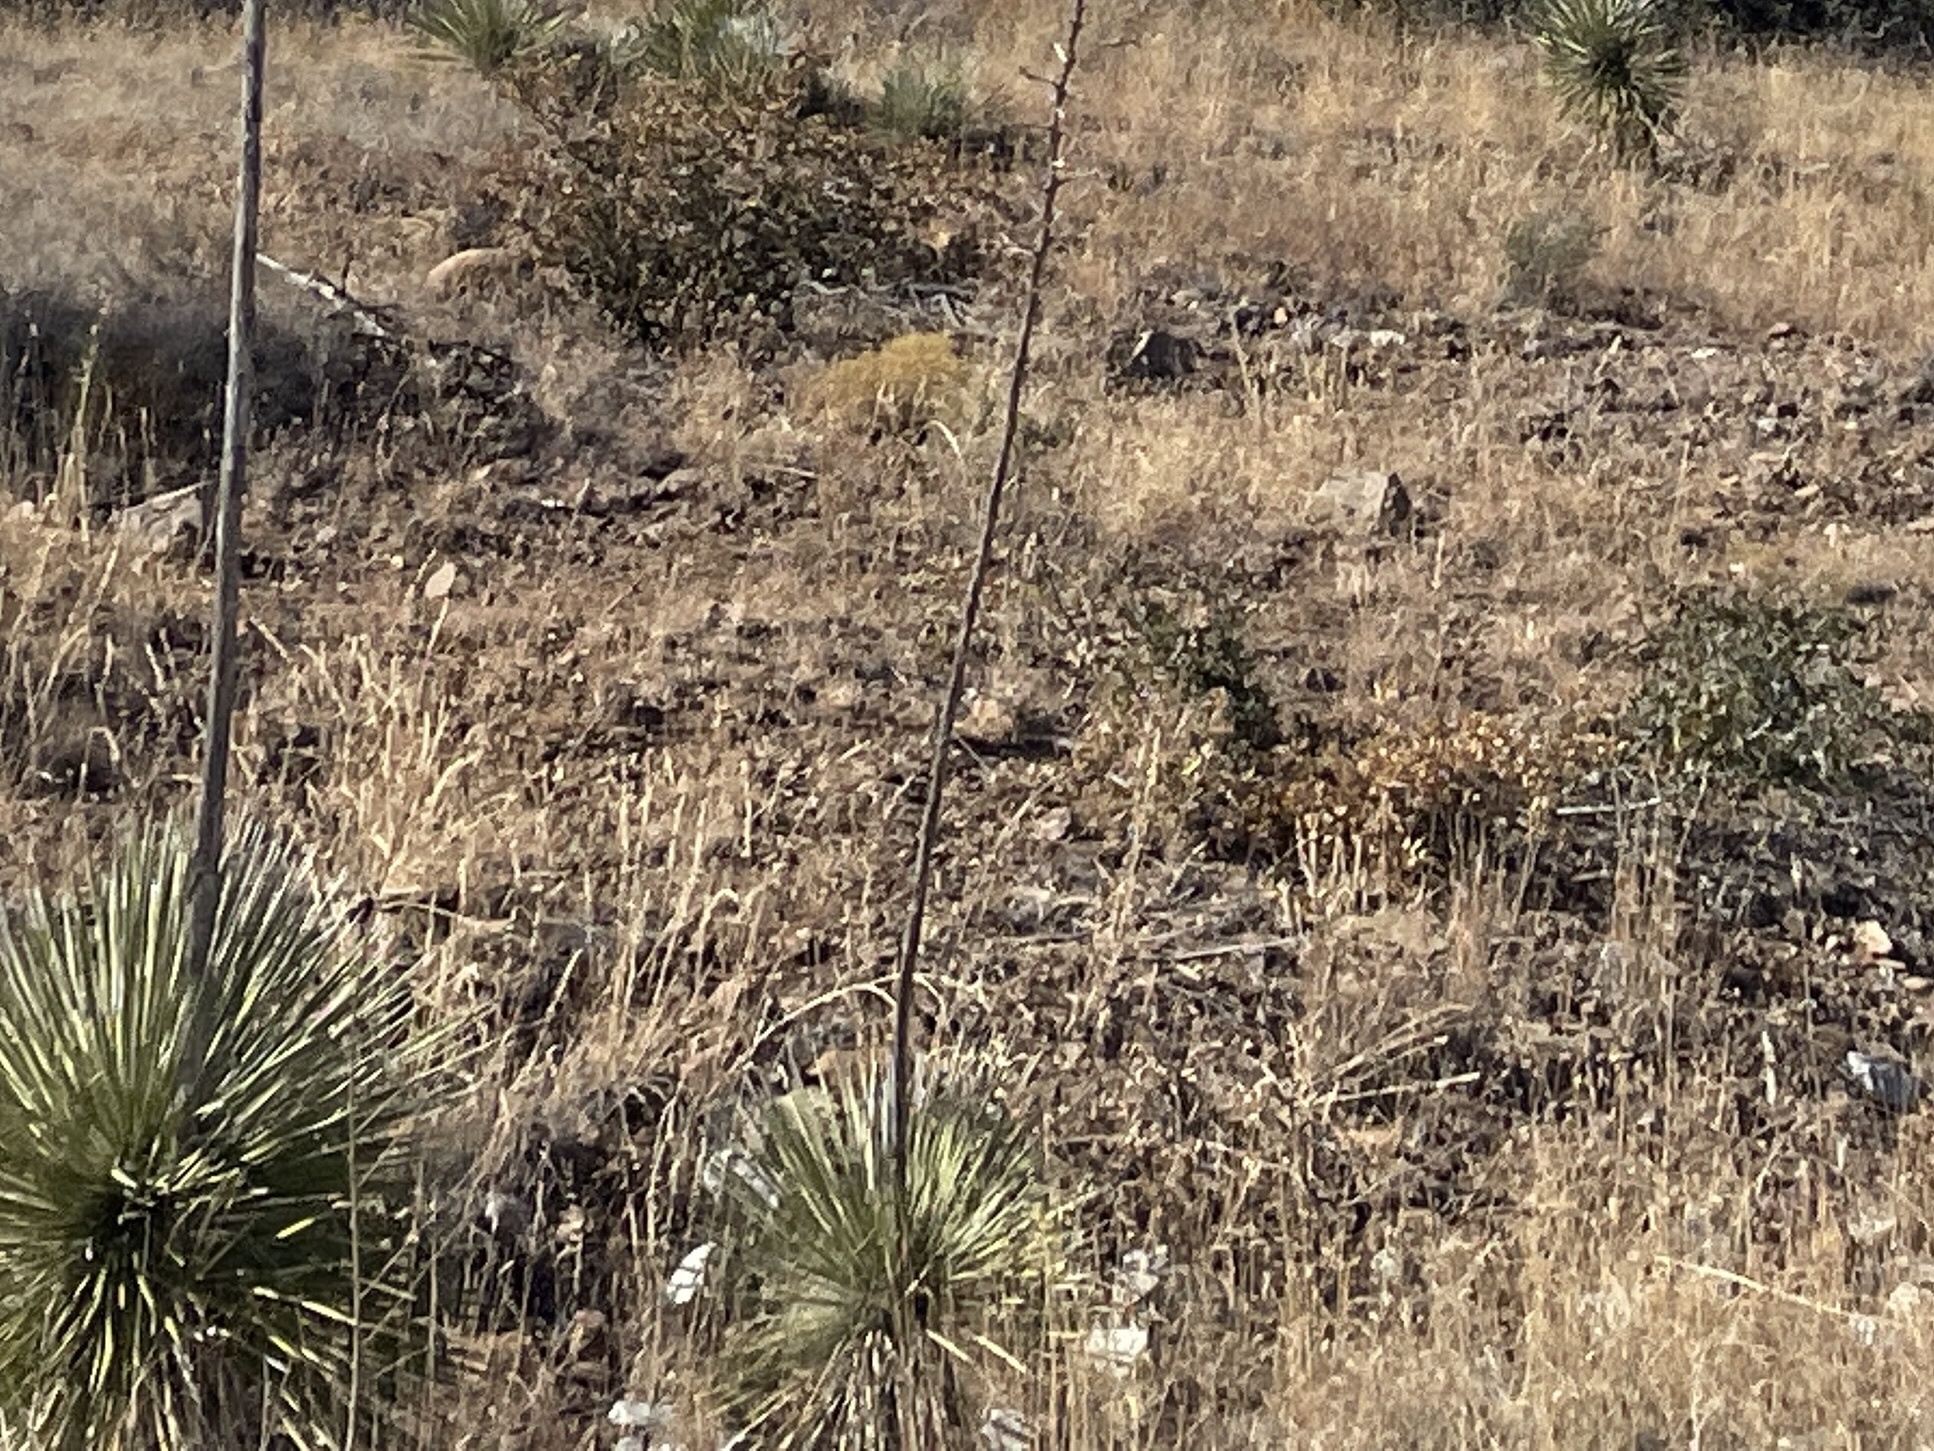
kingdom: Plantae
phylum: Tracheophyta
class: Liliopsida
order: Asparagales
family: Asparagaceae
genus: Yucca
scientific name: Yucca elata
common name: Palmella
